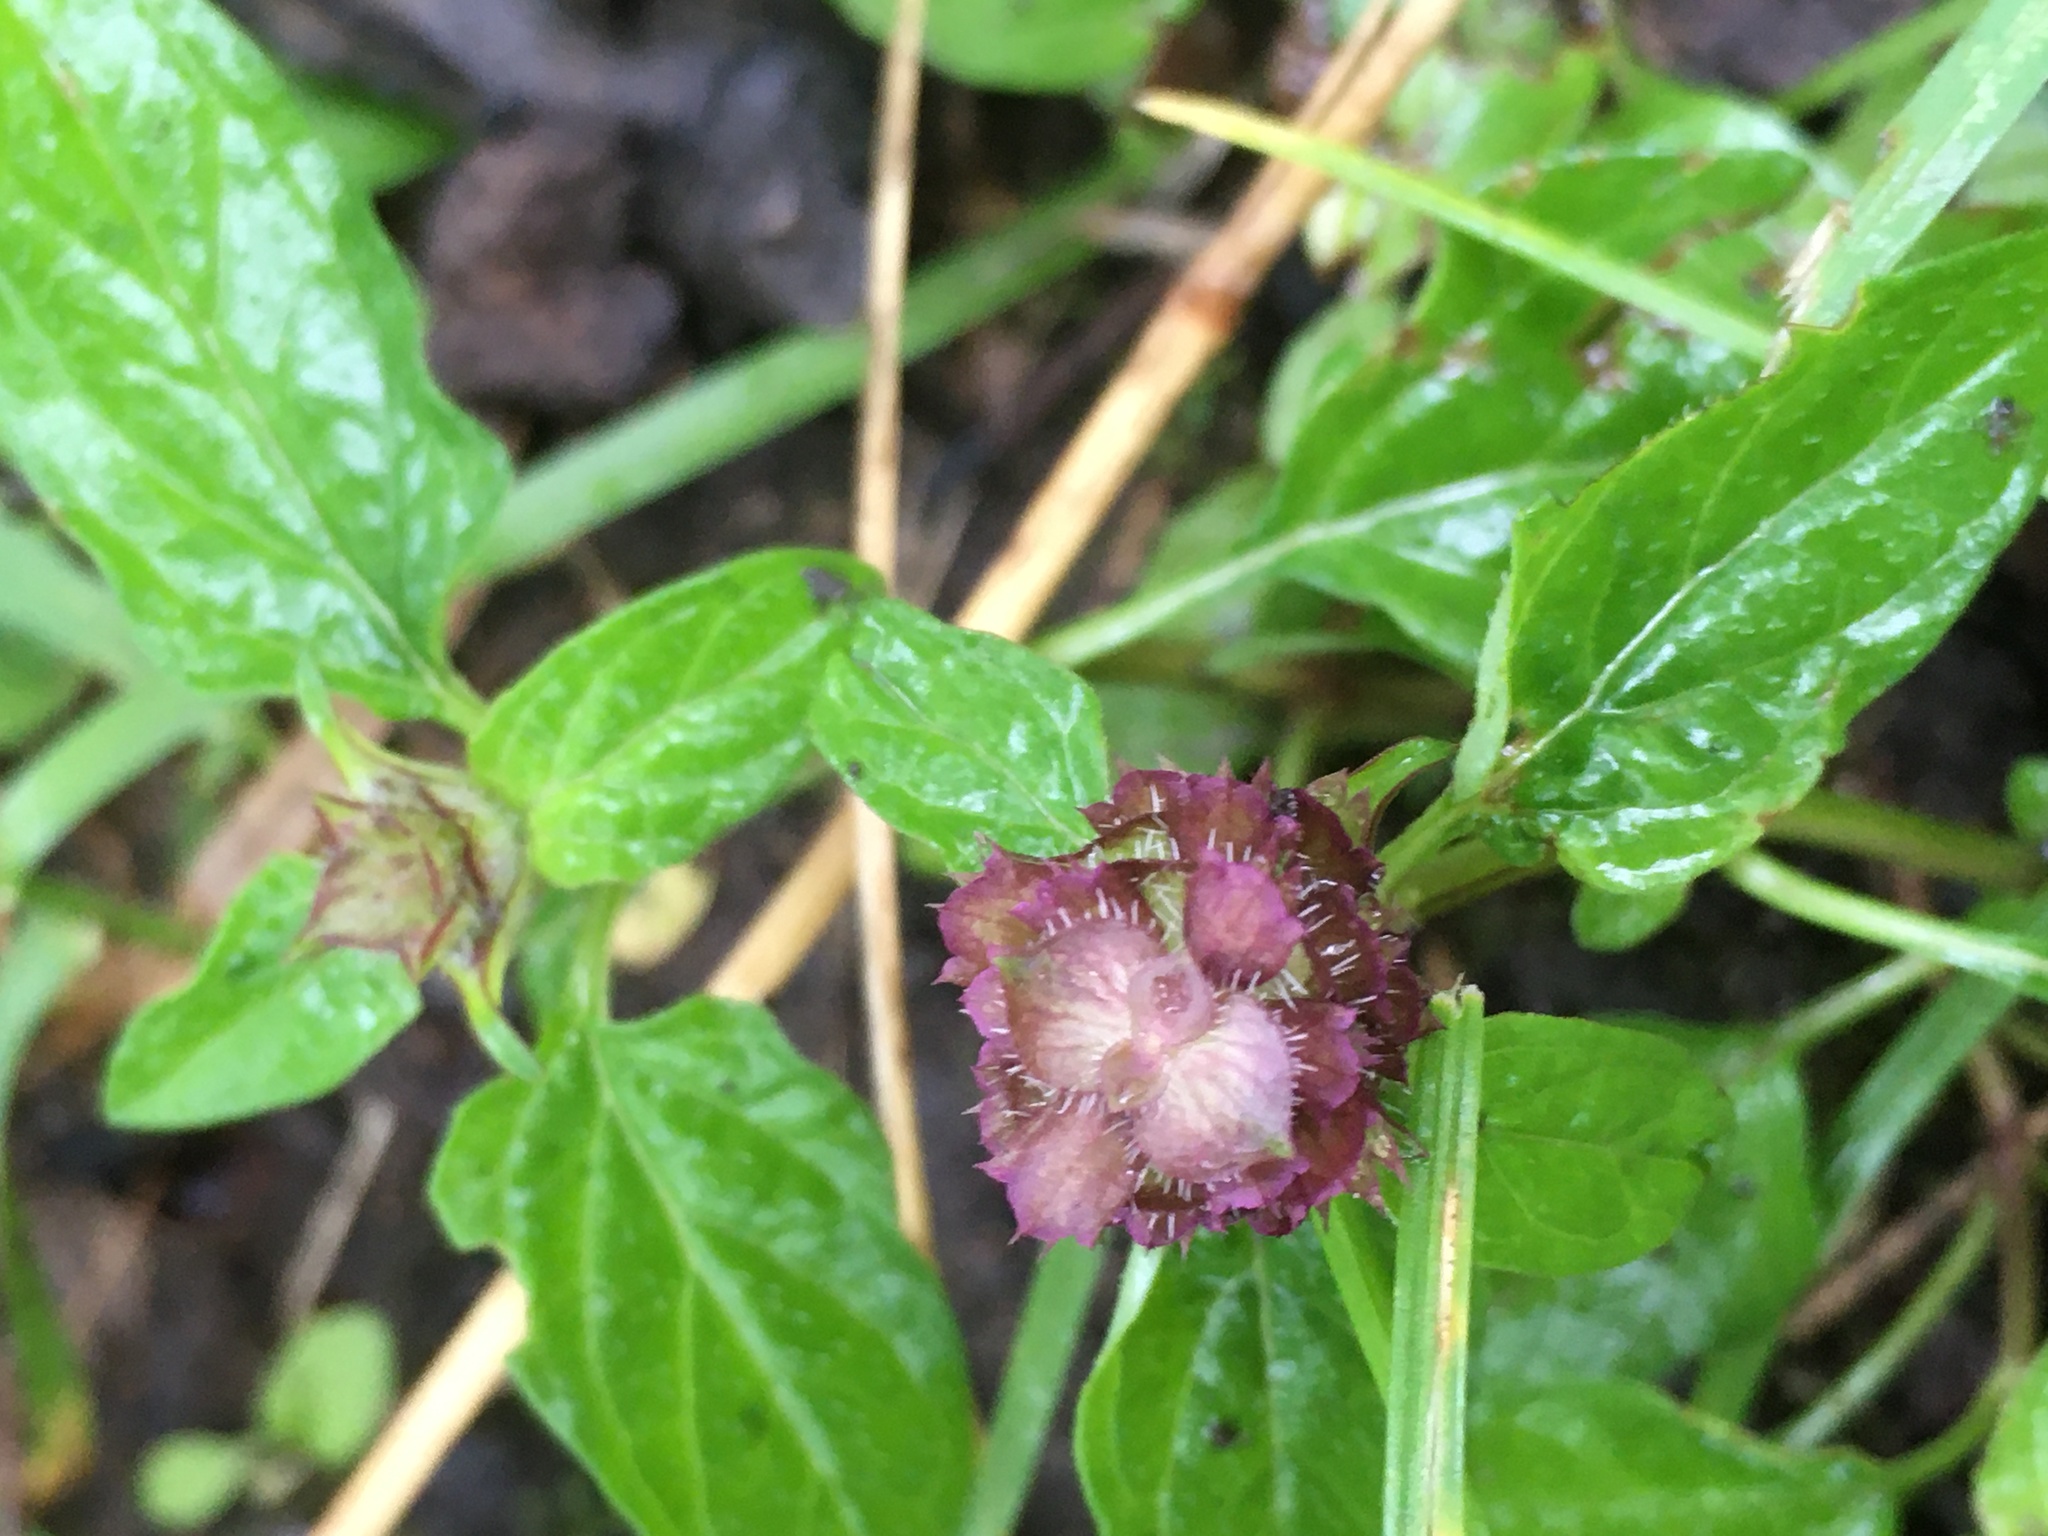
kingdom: Plantae
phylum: Tracheophyta
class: Magnoliopsida
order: Lamiales
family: Lamiaceae
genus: Prunella
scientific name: Prunella vulgaris
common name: Heal-all
